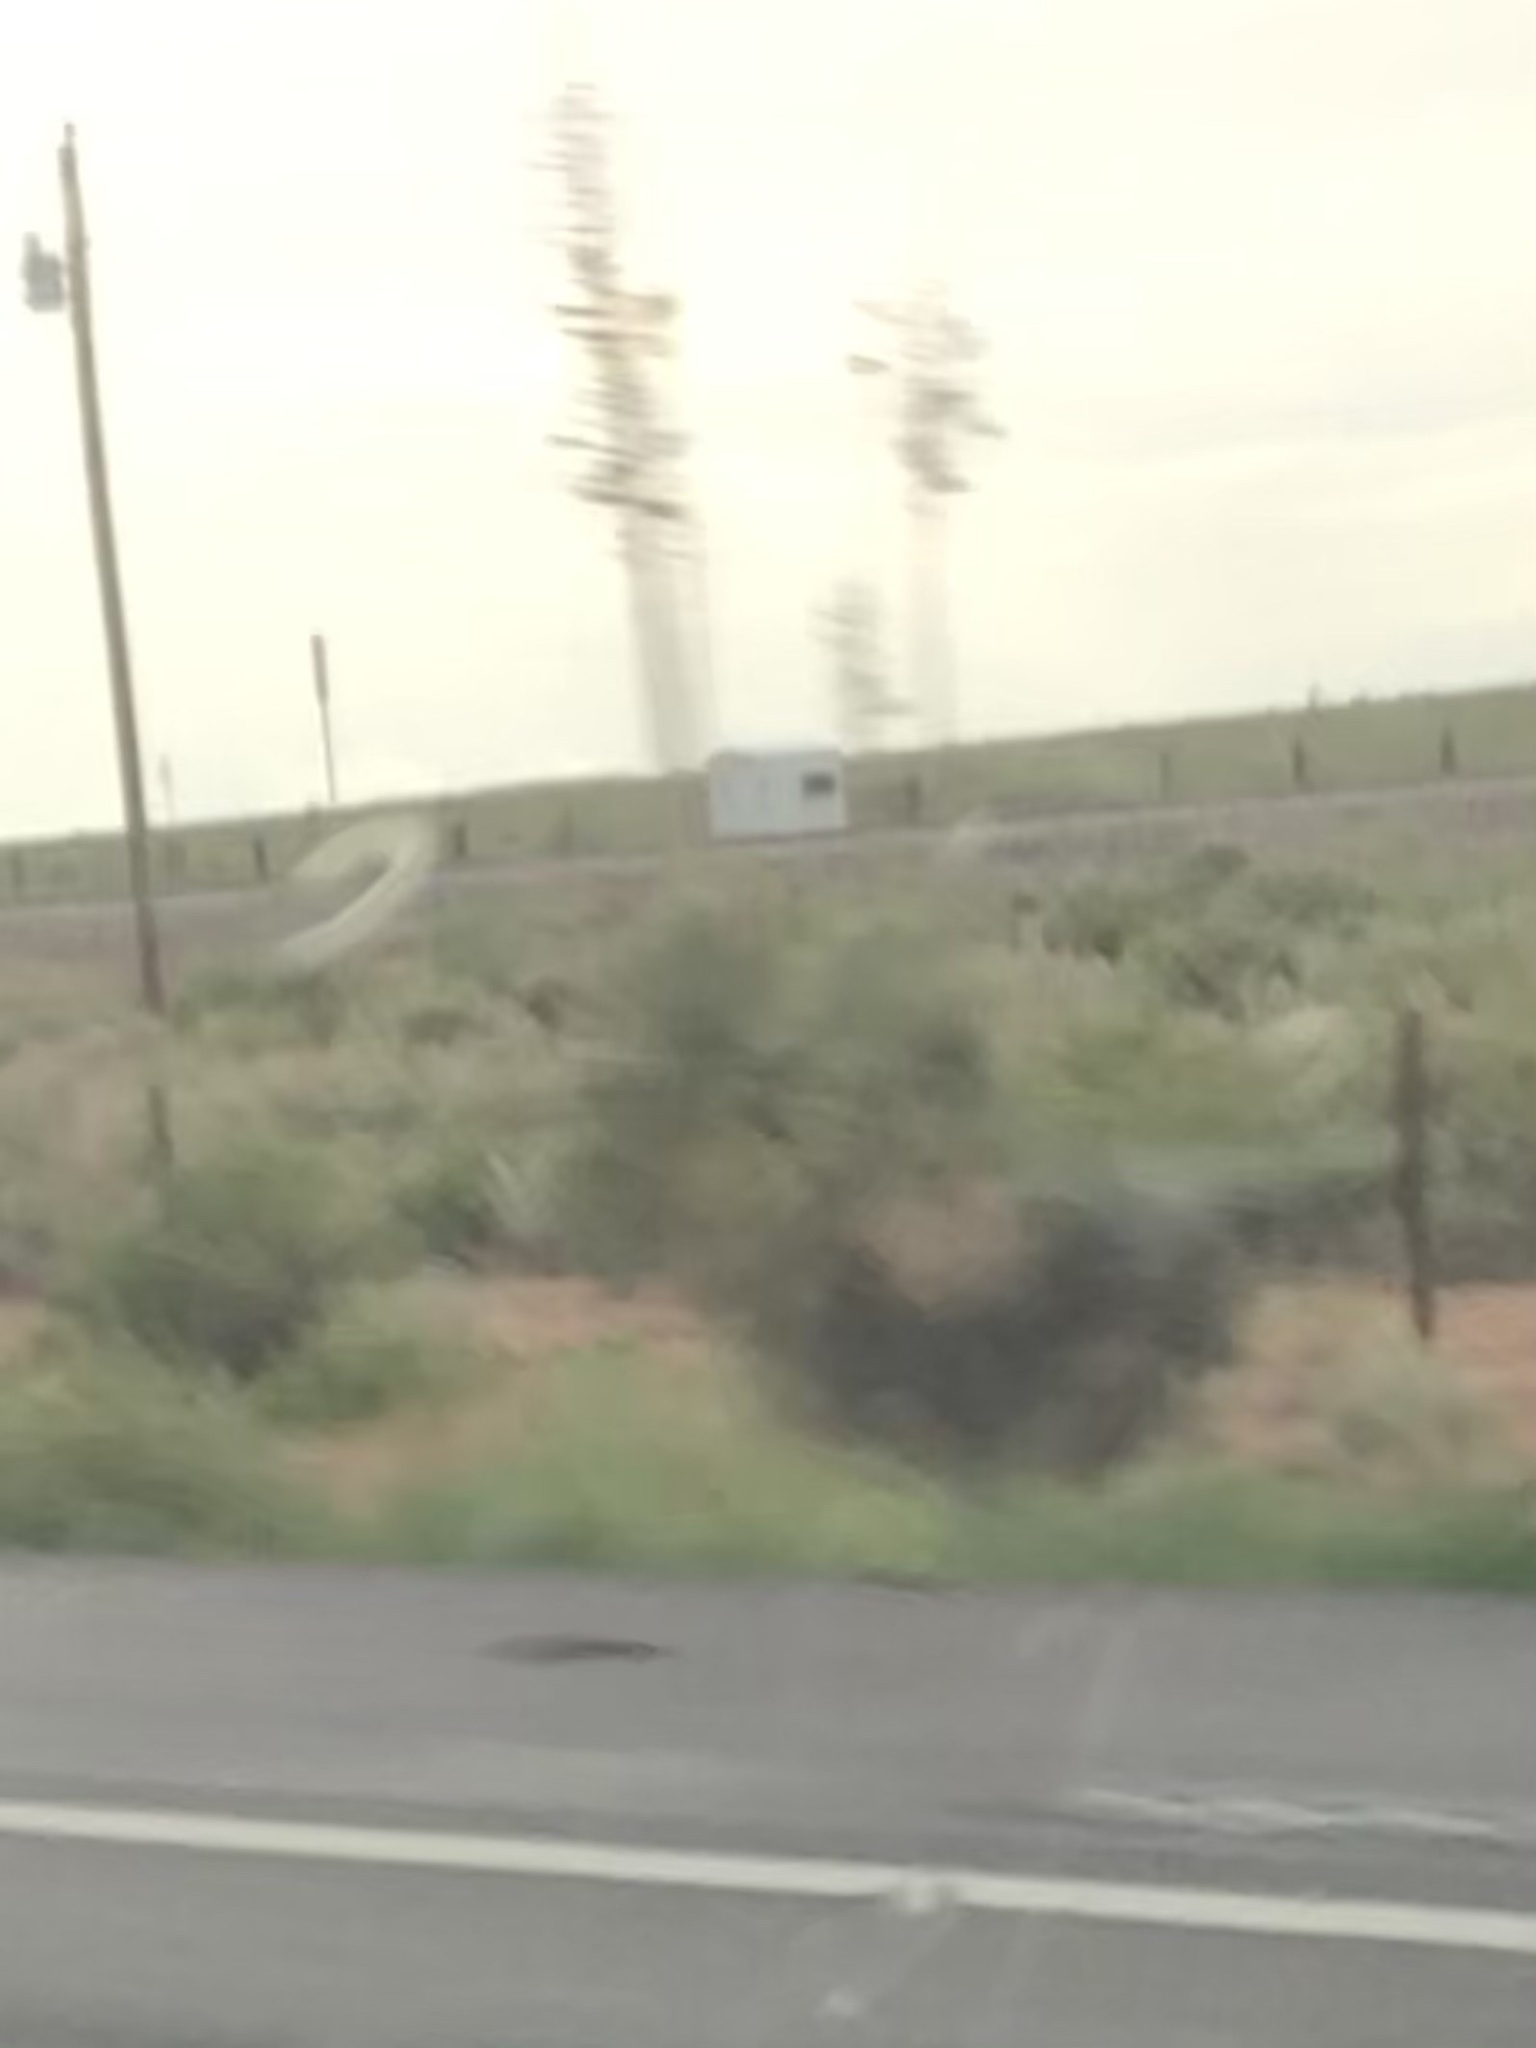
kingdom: Plantae
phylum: Tracheophyta
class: Liliopsida
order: Asparagales
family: Asparagaceae
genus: Yucca
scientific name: Yucca elata
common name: Palmella
